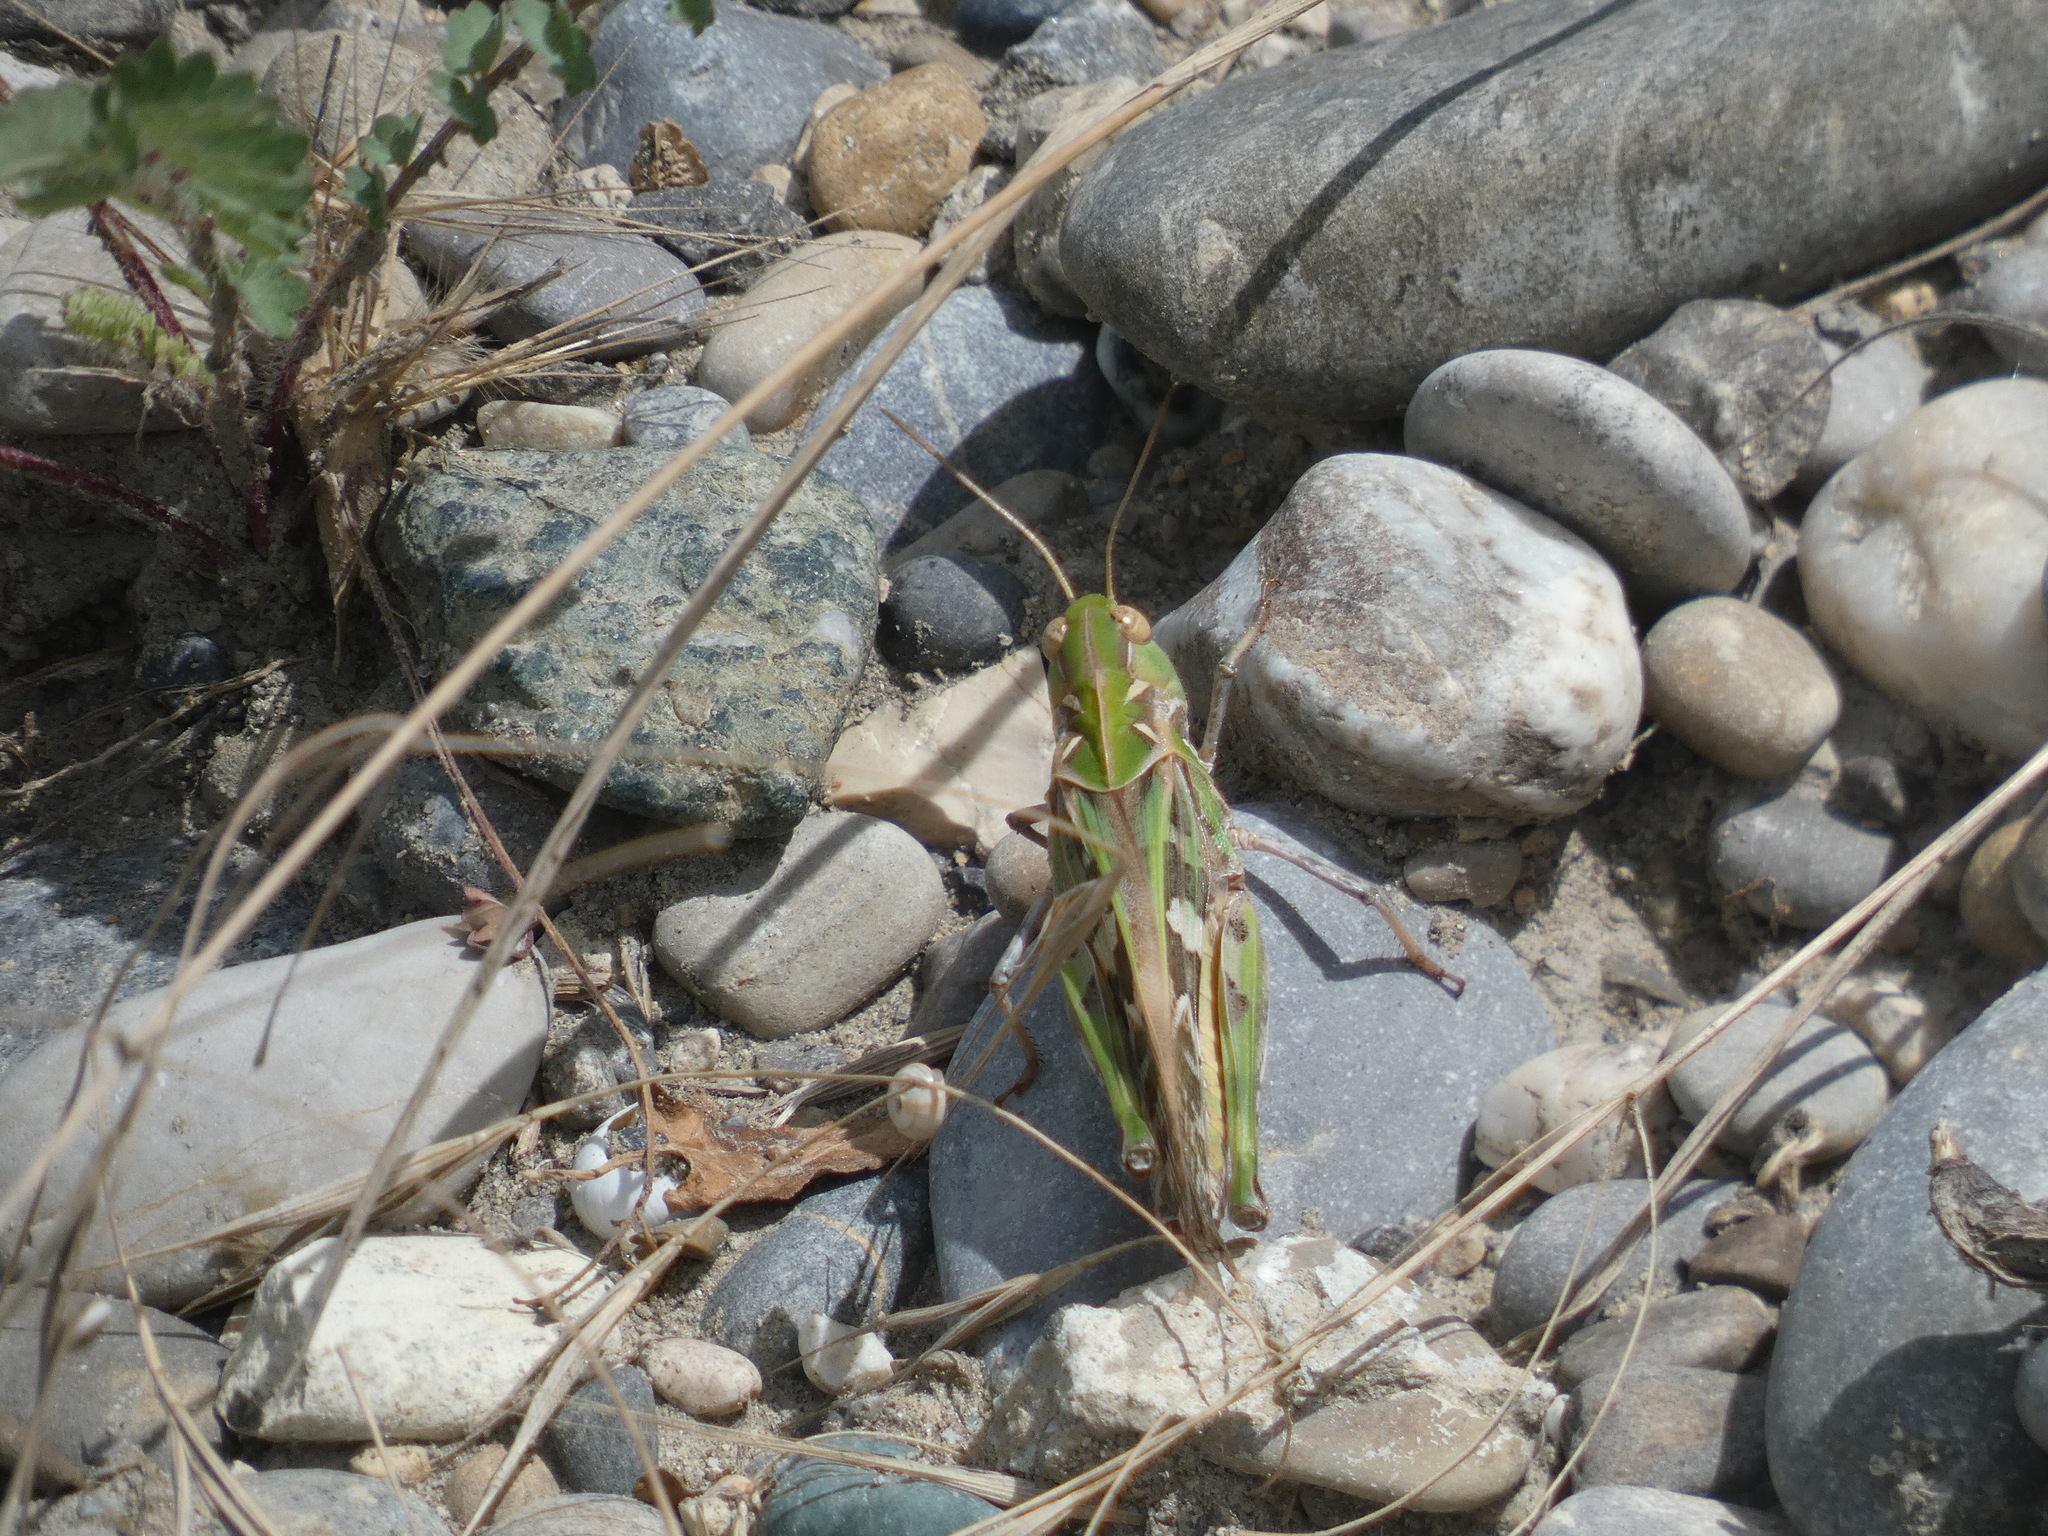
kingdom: Animalia
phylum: Arthropoda
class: Insecta
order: Orthoptera
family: Acrididae
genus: Oedaleus
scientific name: Oedaleus decorus
